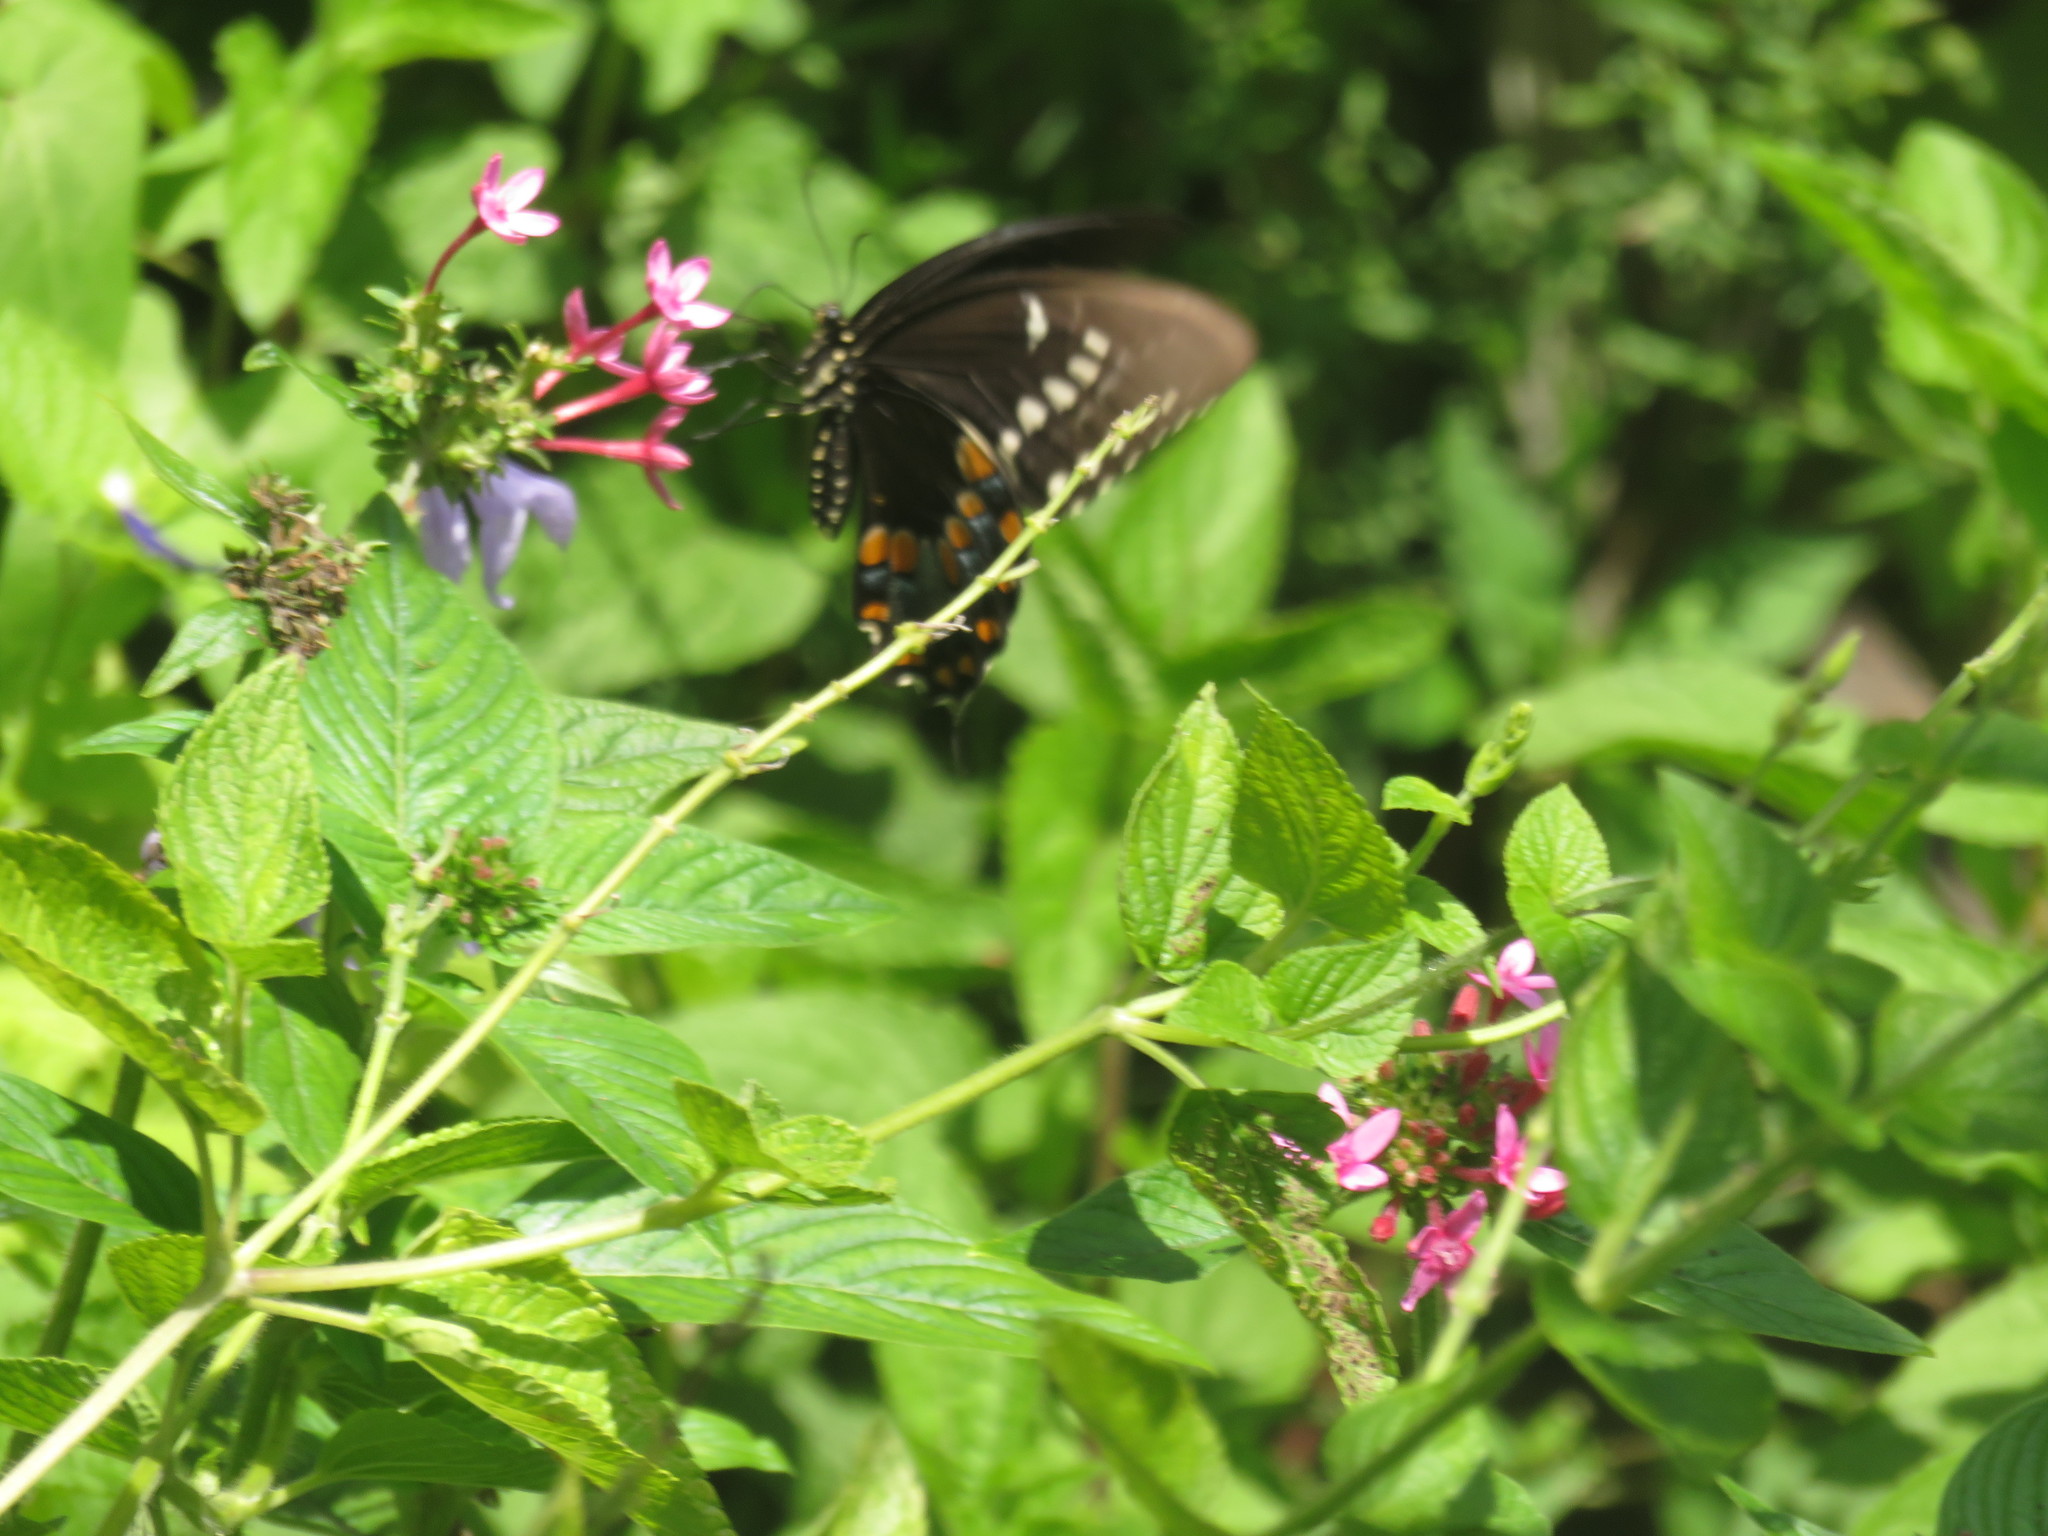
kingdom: Animalia
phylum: Arthropoda
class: Insecta
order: Lepidoptera
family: Papilionidae
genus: Papilio
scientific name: Papilio troilus
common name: Spicebush swallowtail
